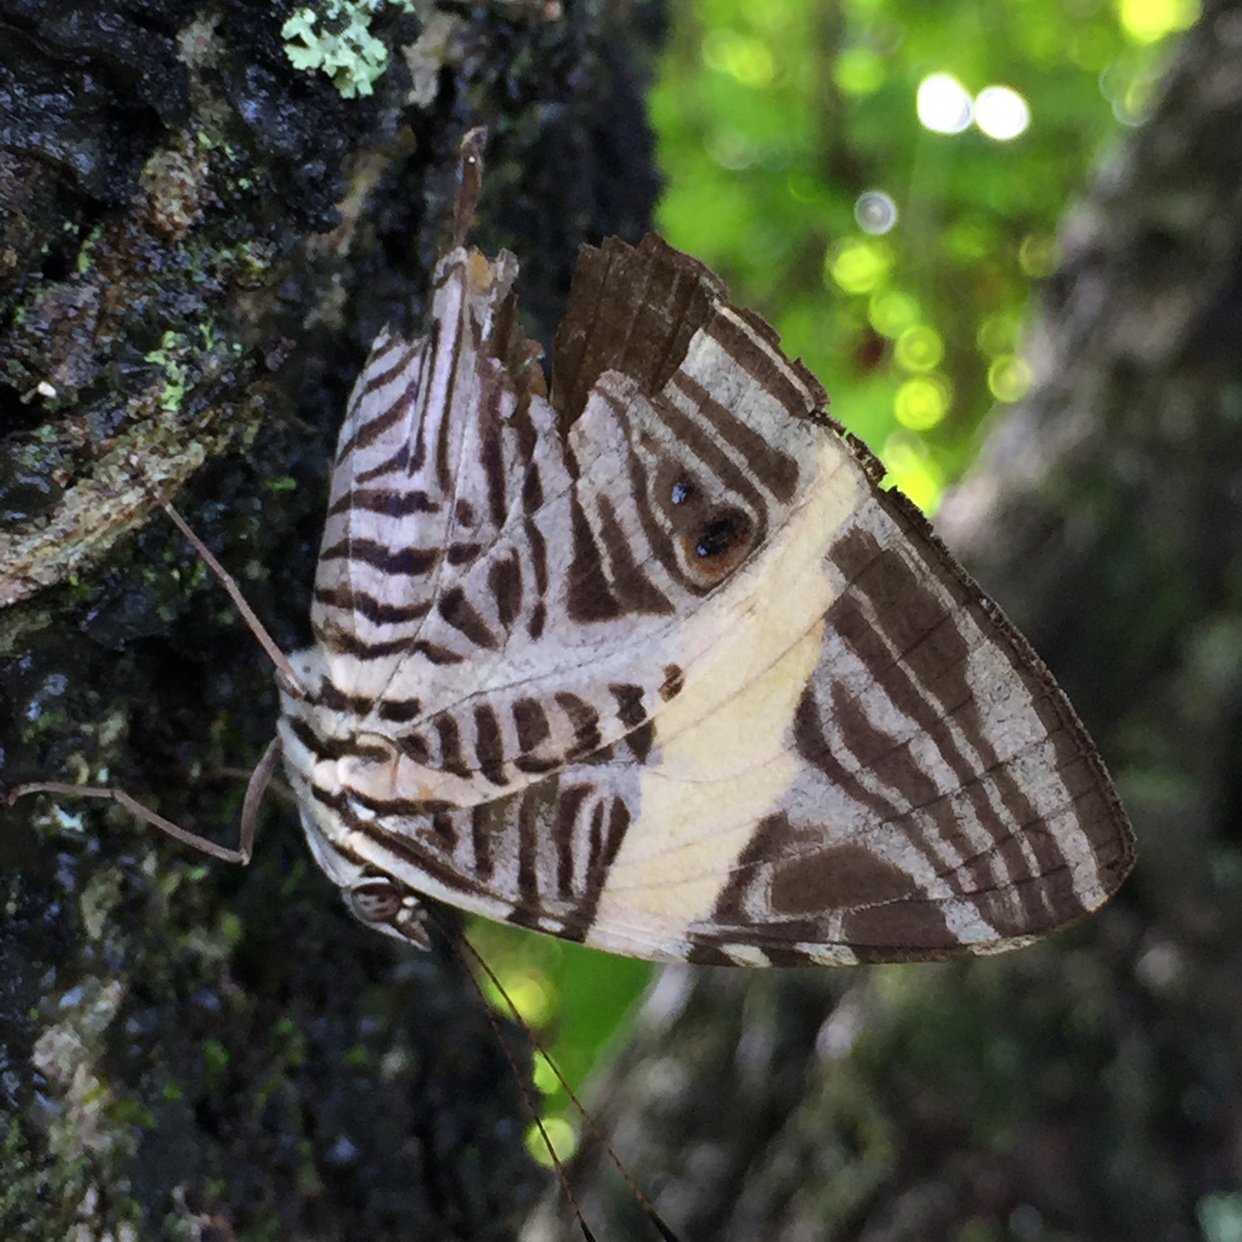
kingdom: Animalia
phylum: Arthropoda
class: Insecta
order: Lepidoptera
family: Nymphalidae
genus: Colobura
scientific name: Colobura dirce
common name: Dirce beauty
